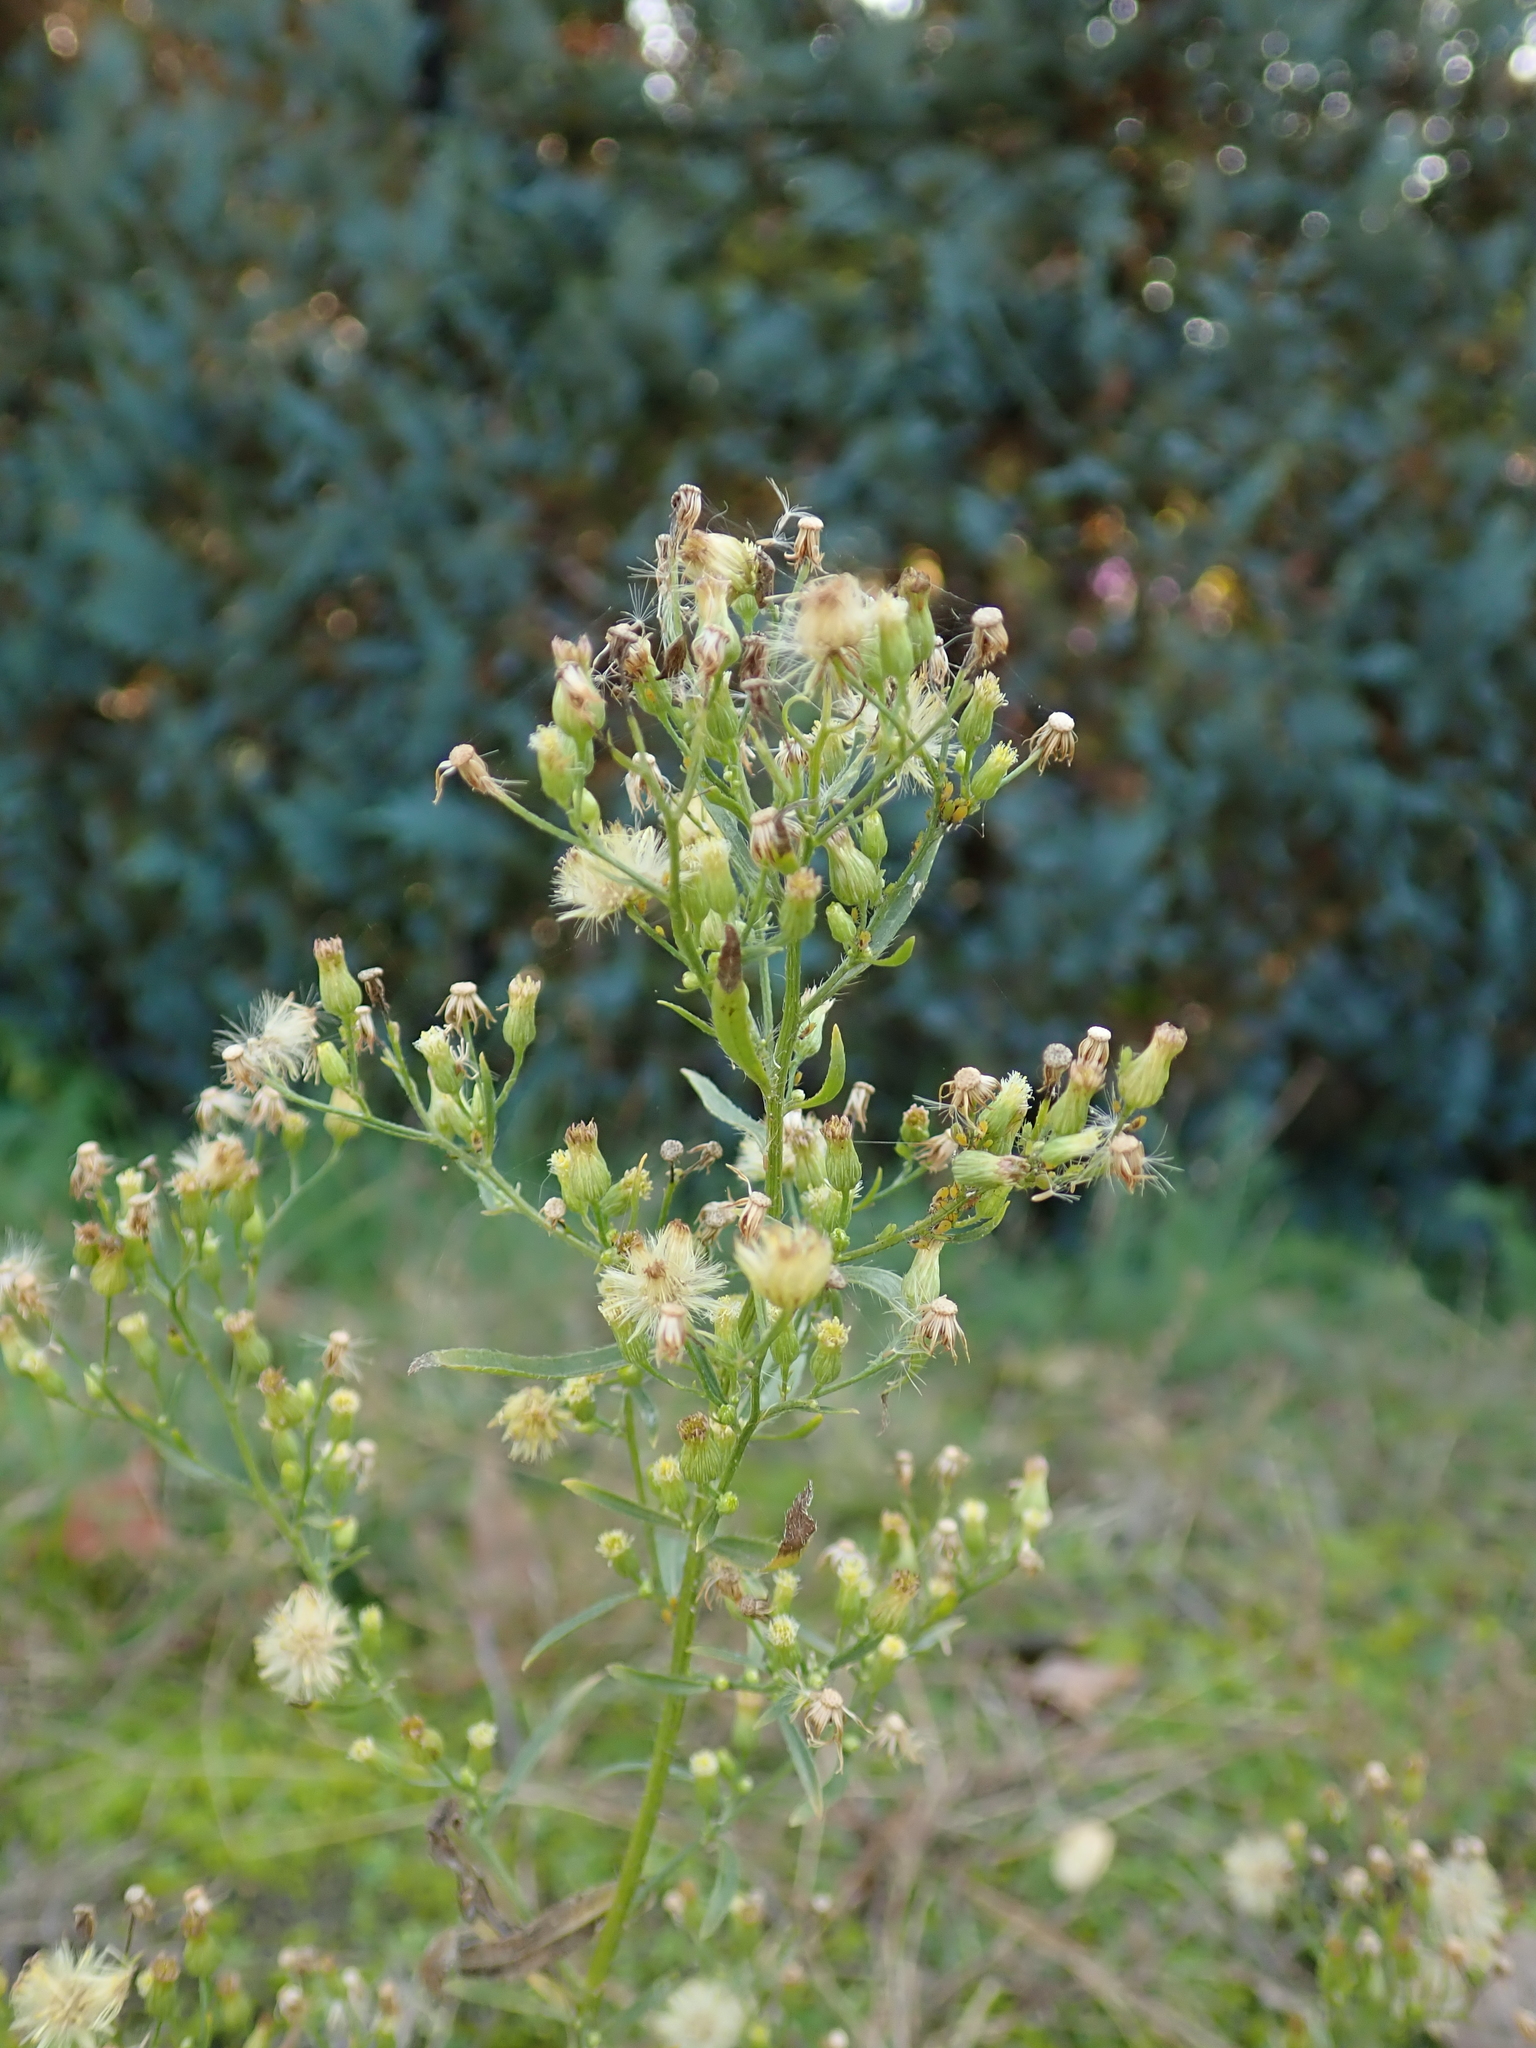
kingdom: Plantae
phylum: Tracheophyta
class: Magnoliopsida
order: Asterales
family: Asteraceae
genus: Erigeron
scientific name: Erigeron canadensis
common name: Canadian fleabane
